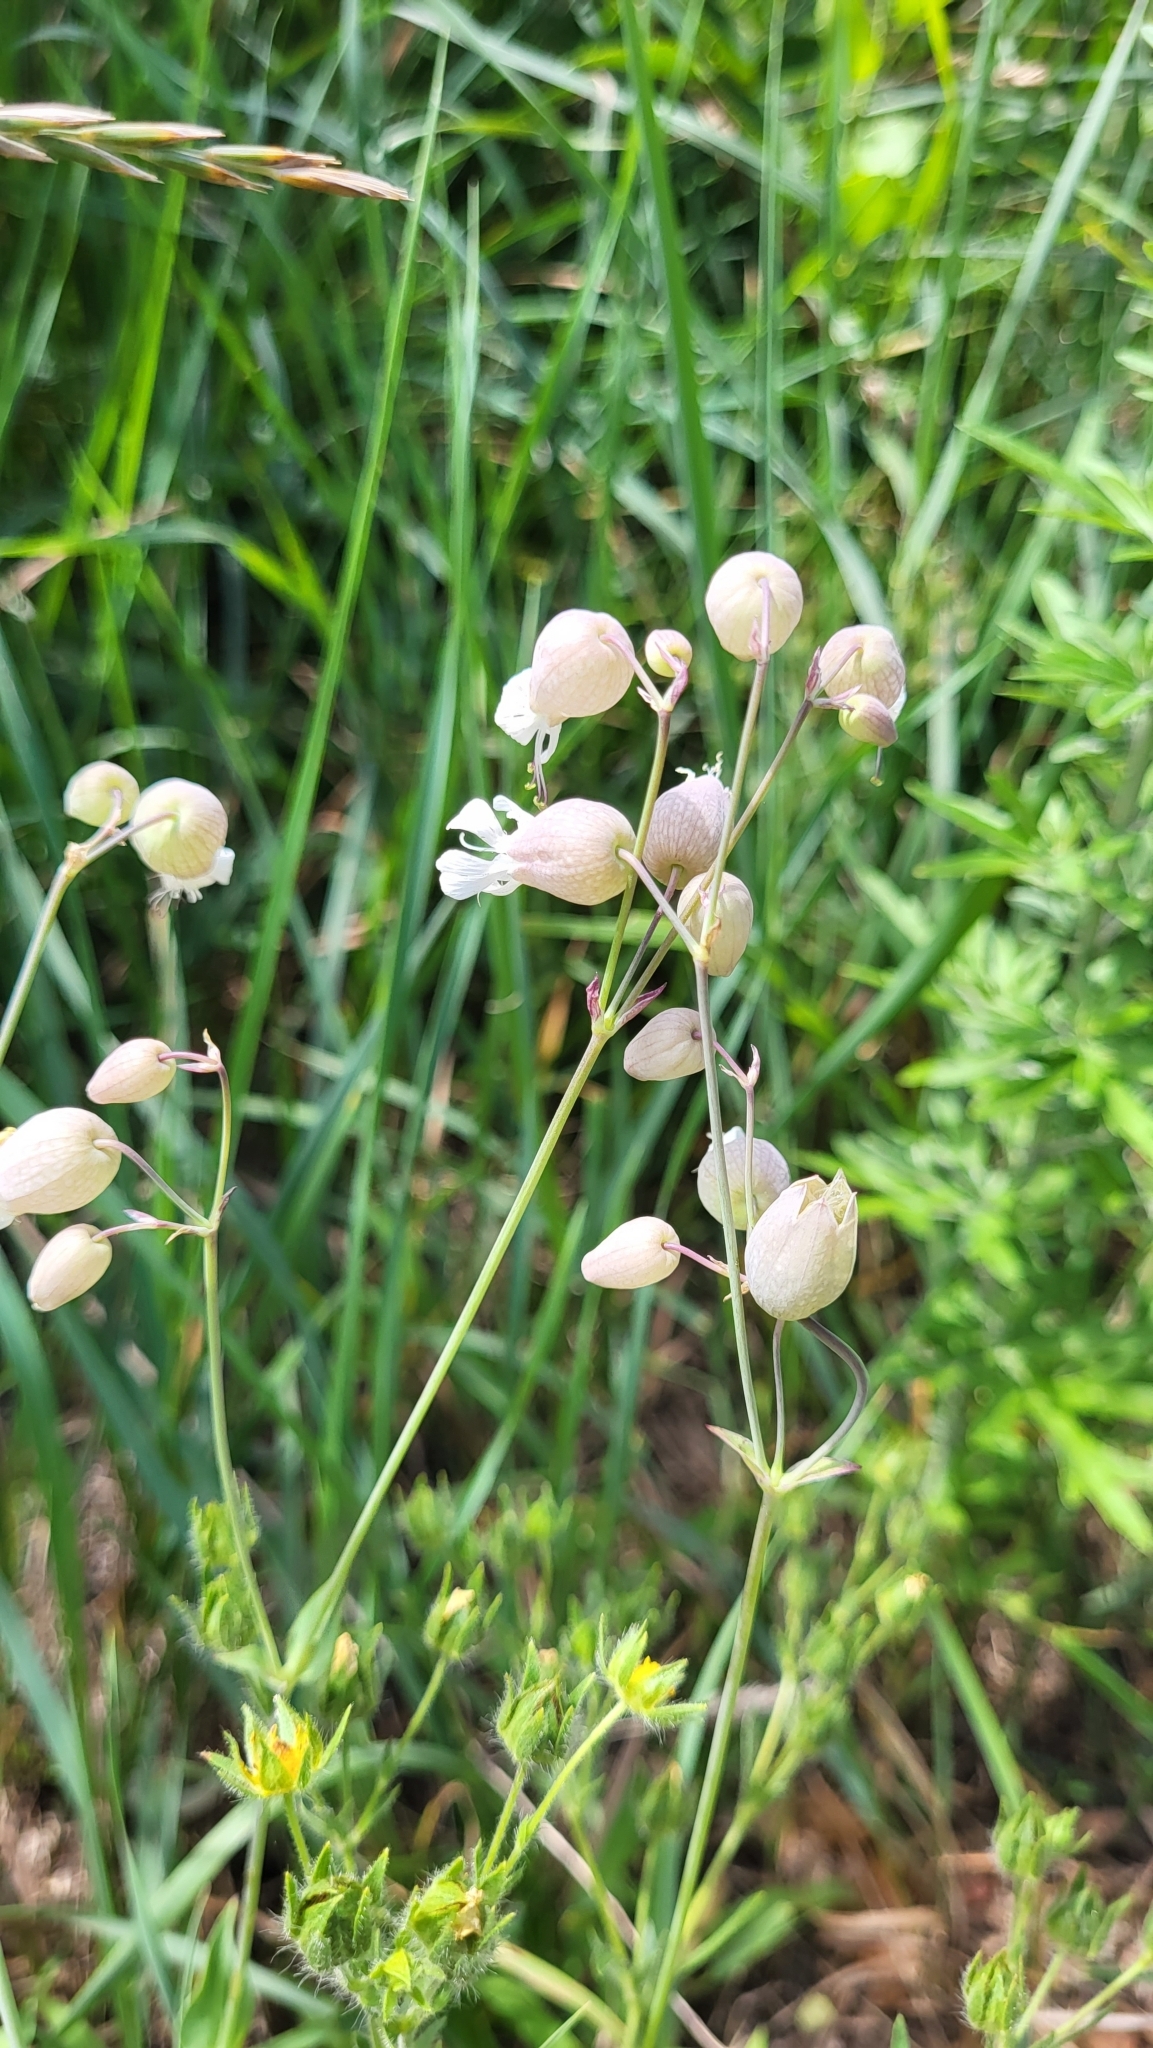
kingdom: Plantae
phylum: Tracheophyta
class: Magnoliopsida
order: Caryophyllales
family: Caryophyllaceae
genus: Silene
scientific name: Silene vulgaris
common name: Bladder campion
